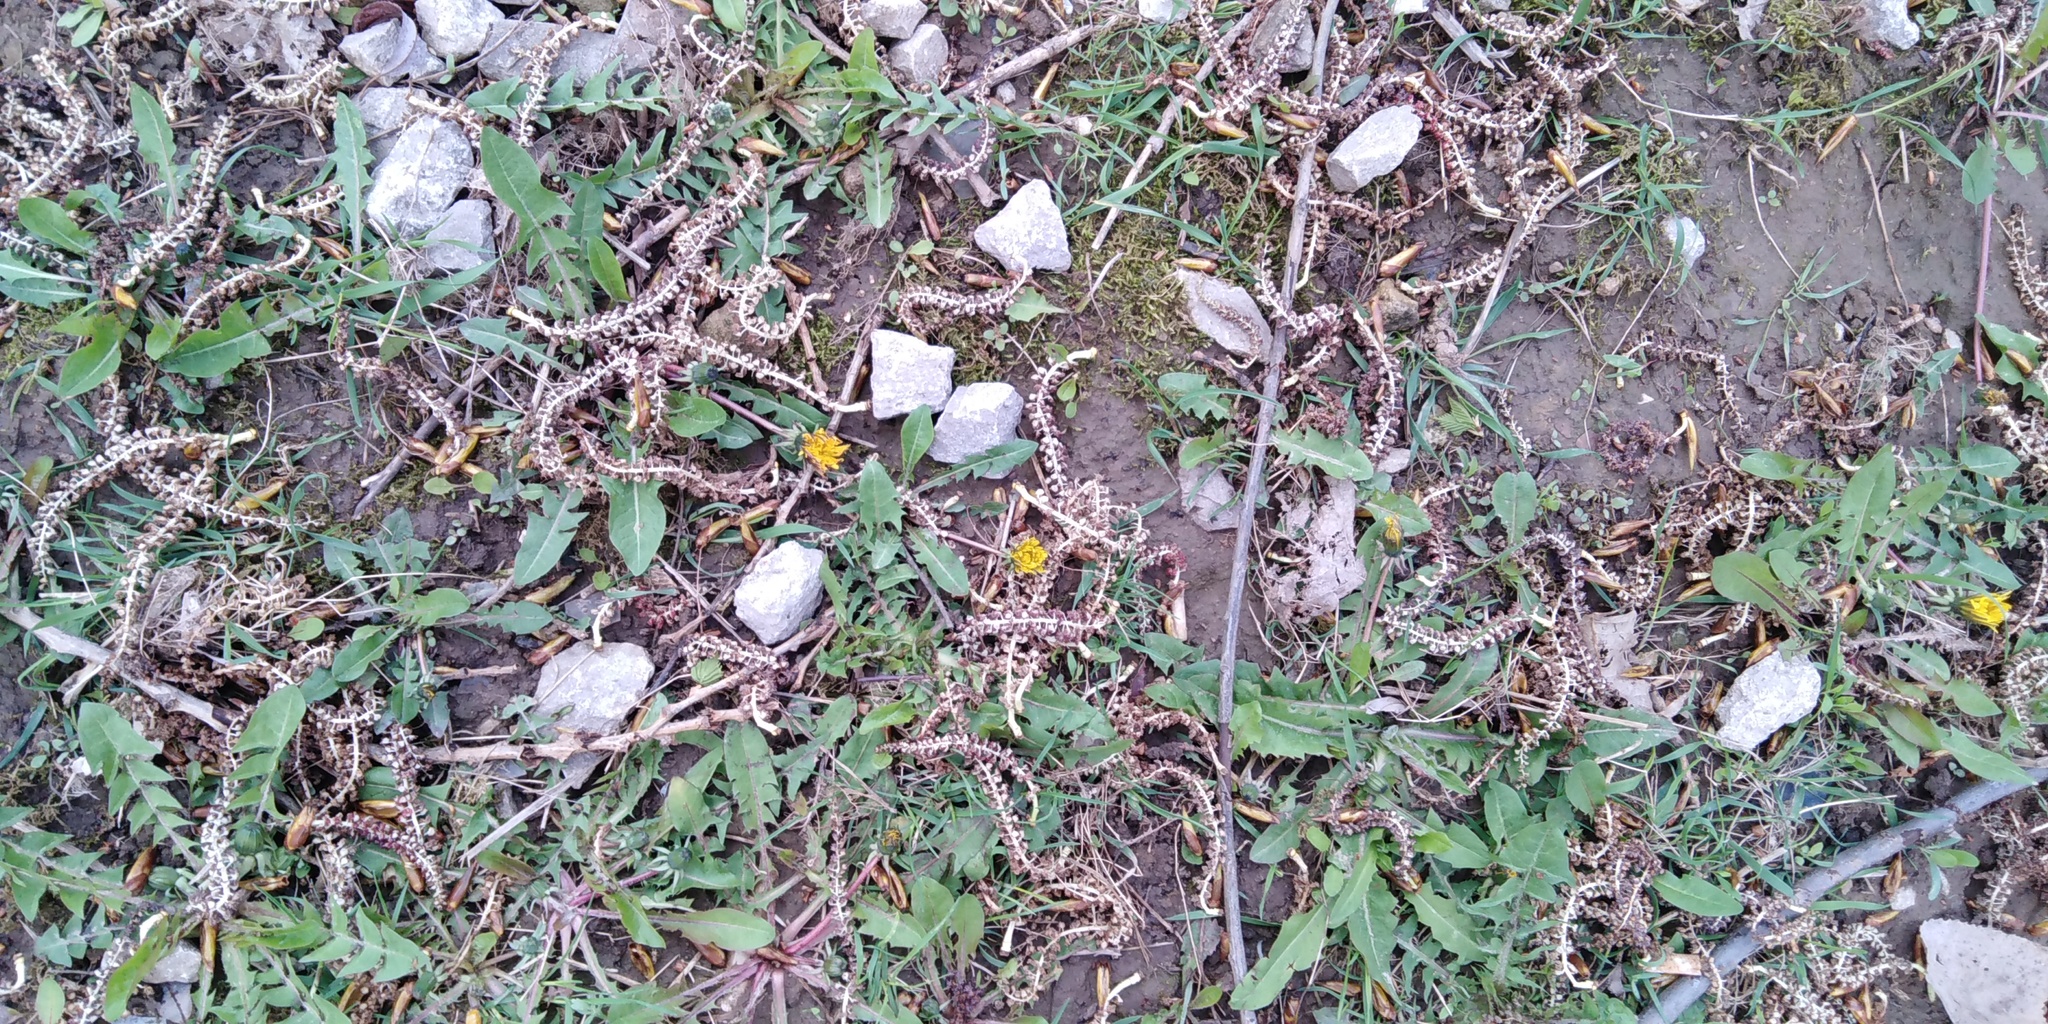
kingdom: Plantae
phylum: Tracheophyta
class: Magnoliopsida
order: Asterales
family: Asteraceae
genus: Taraxacum
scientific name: Taraxacum officinale
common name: Common dandelion
